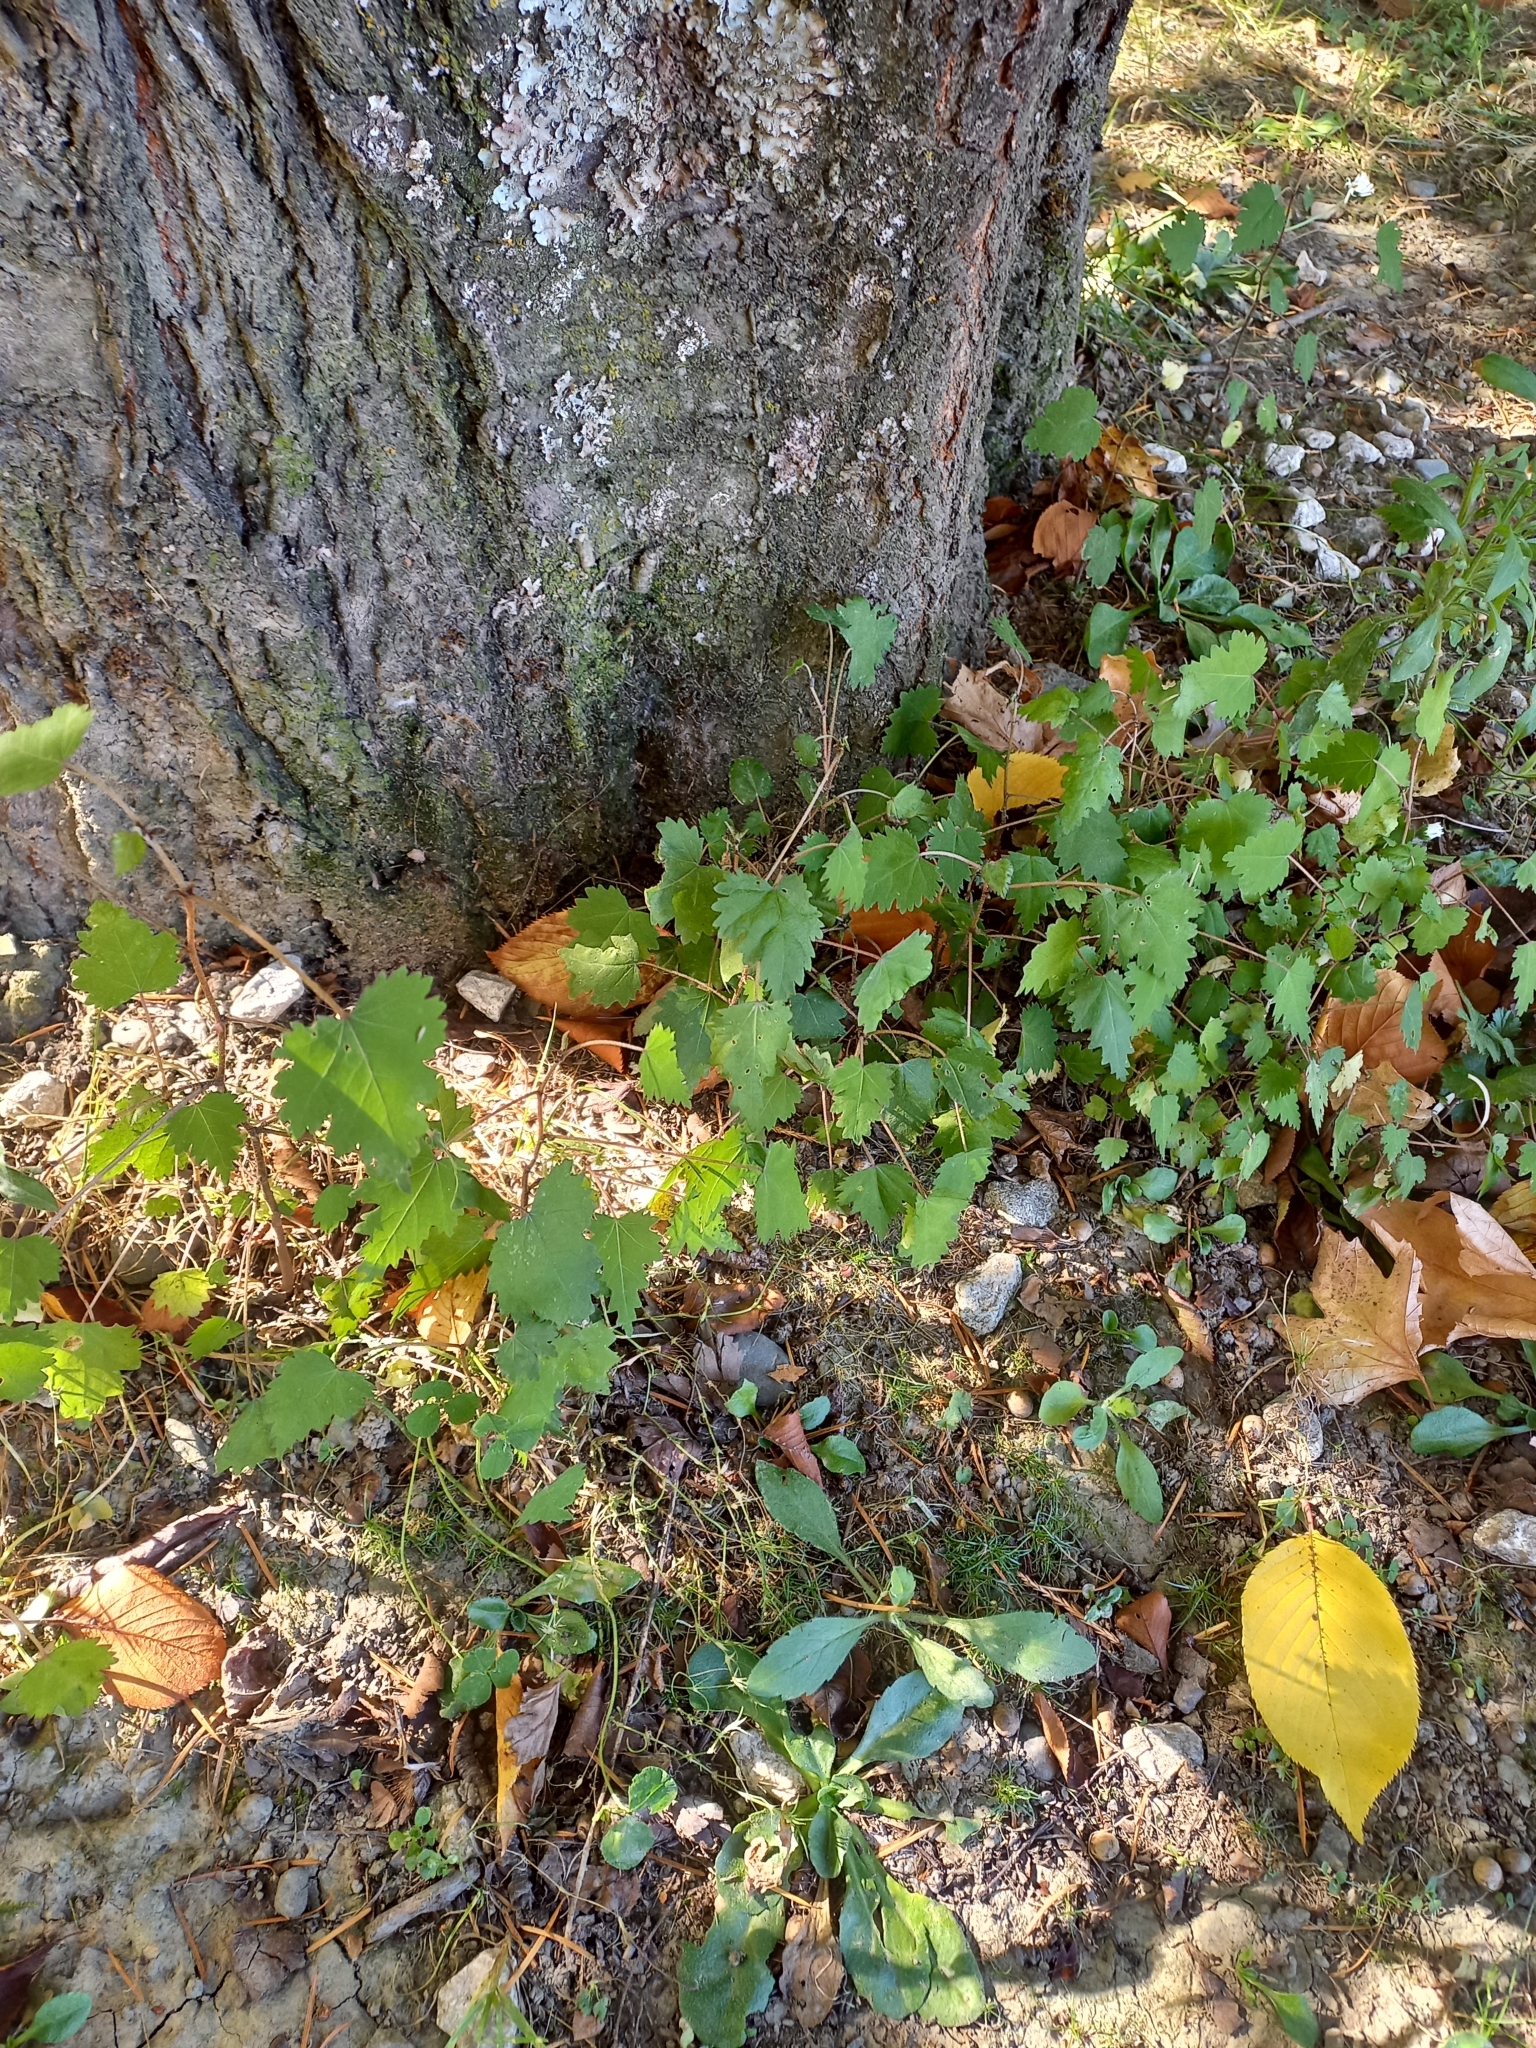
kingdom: Plantae
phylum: Tracheophyta
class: Magnoliopsida
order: Malvales
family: Malvaceae
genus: Plagianthus
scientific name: Plagianthus regius
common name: Manatu
